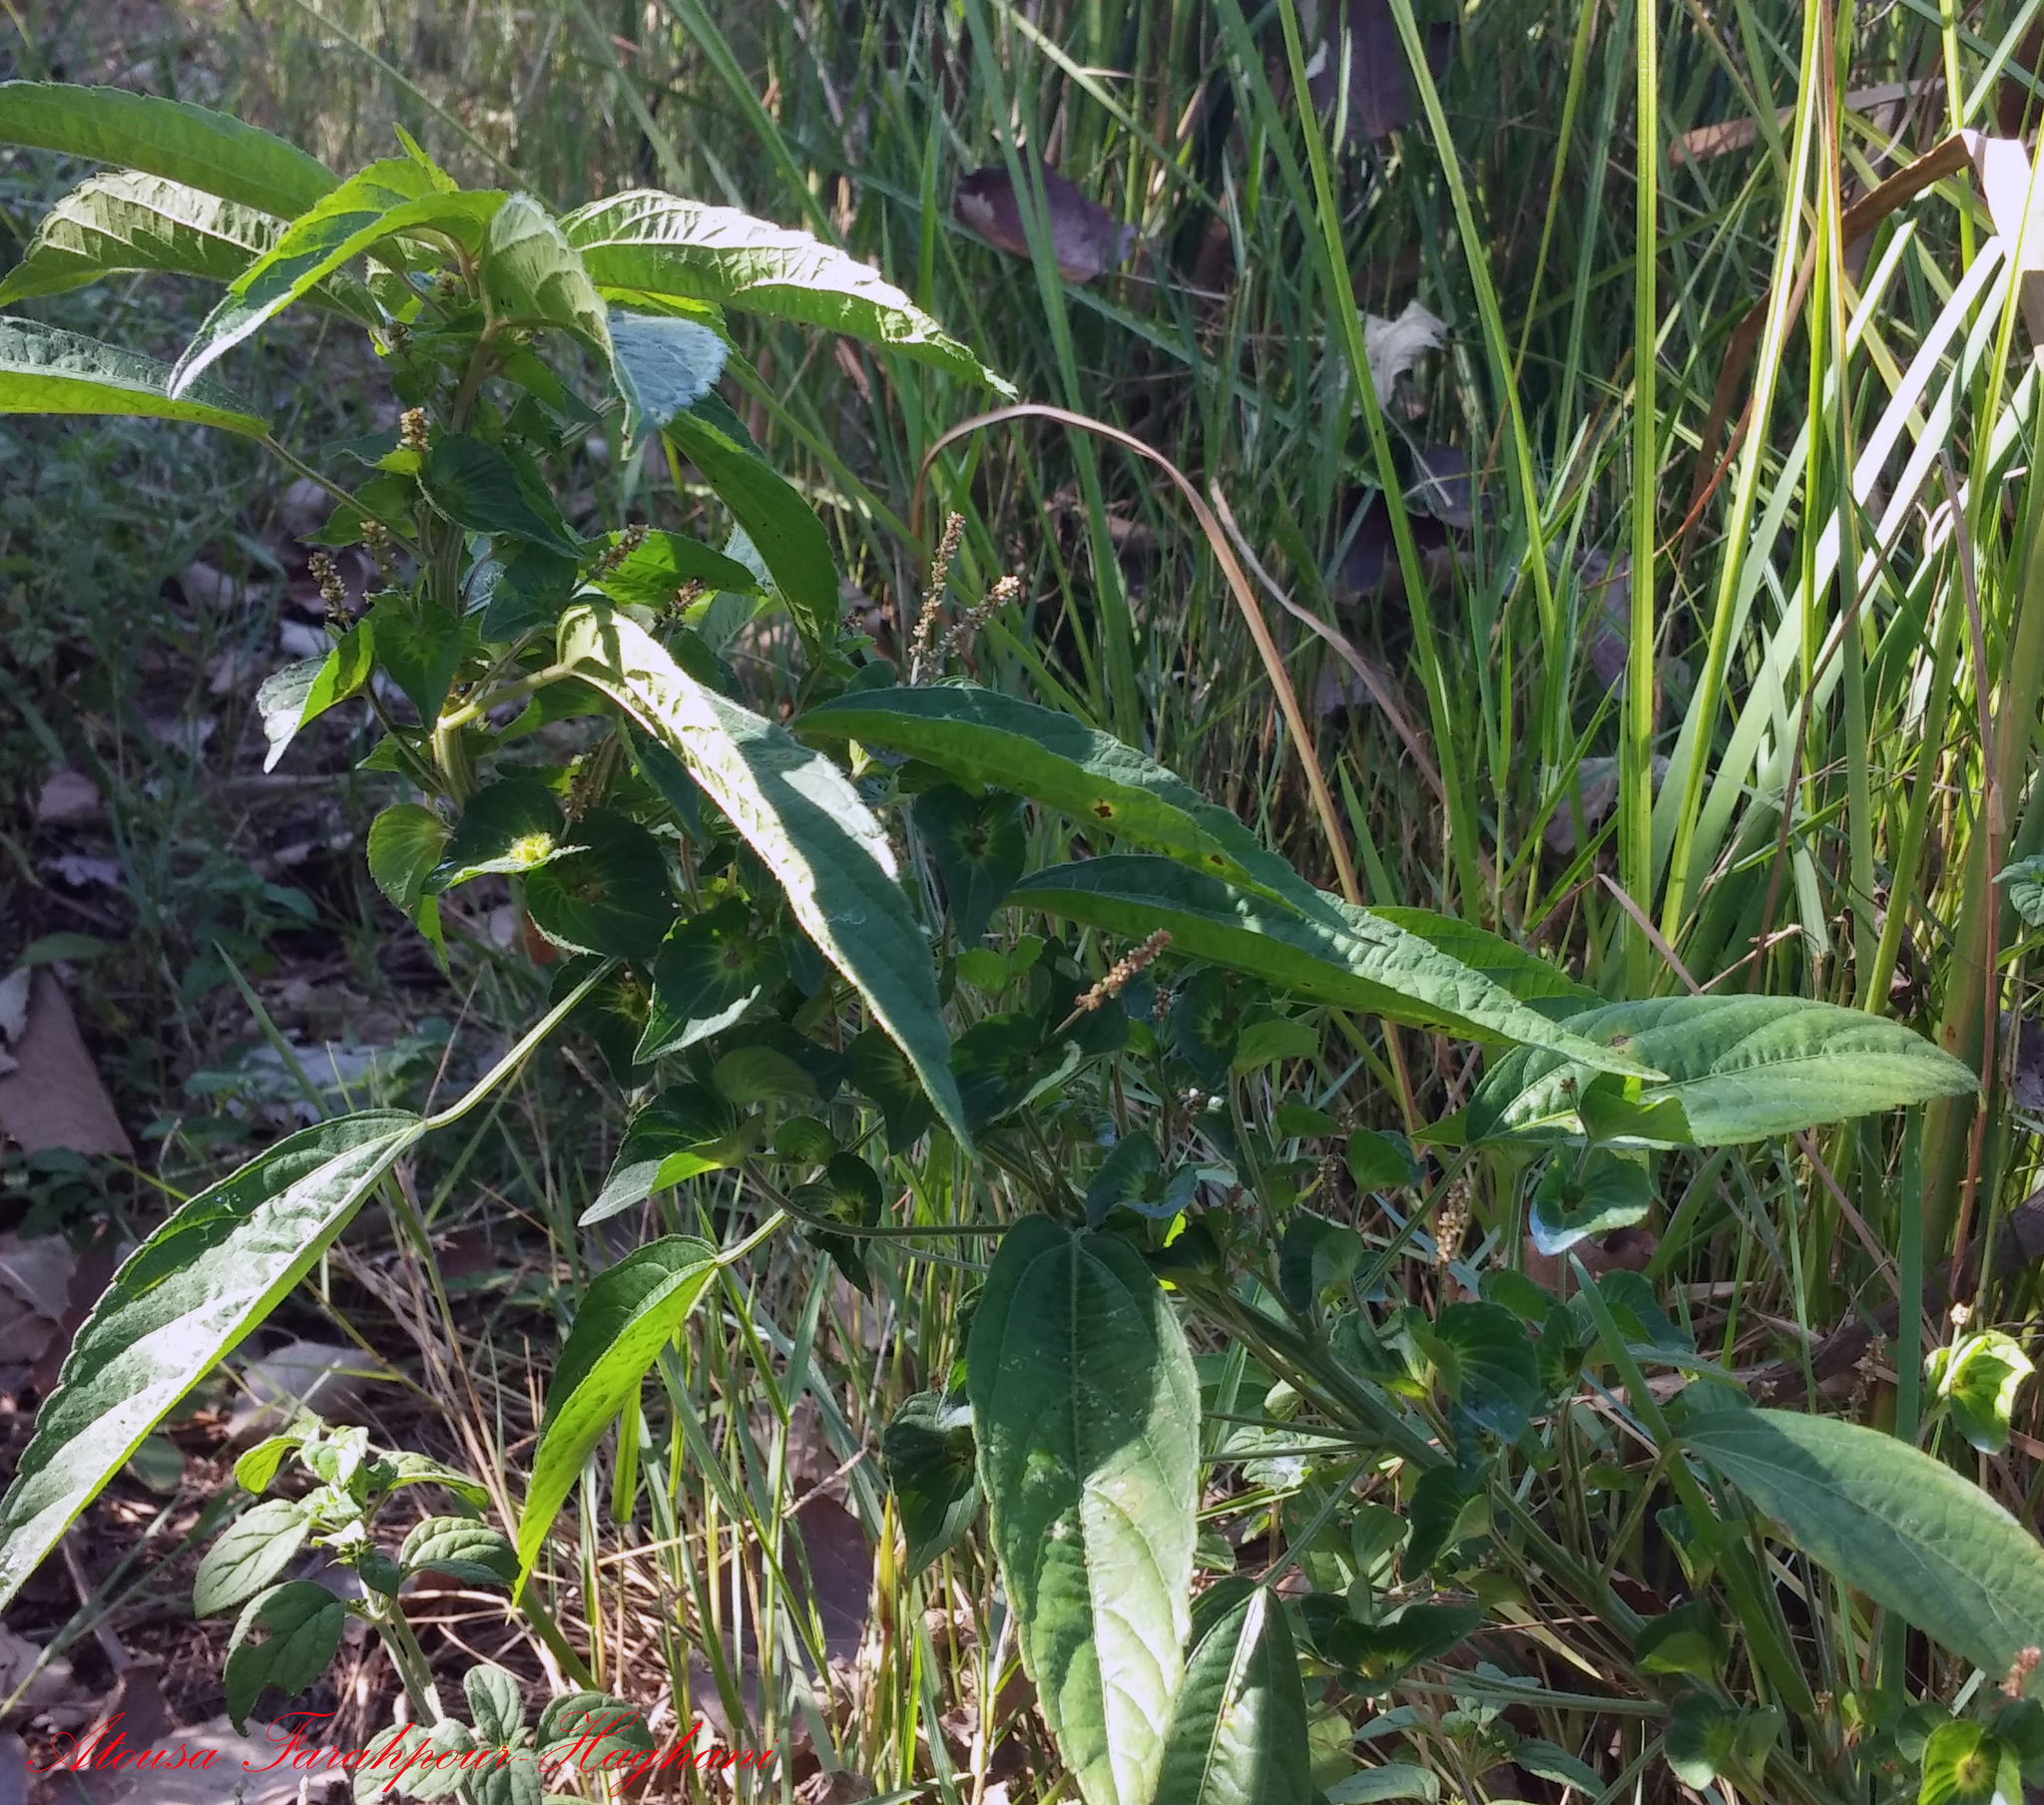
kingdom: Plantae
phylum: Tracheophyta
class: Magnoliopsida
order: Malpighiales
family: Euphorbiaceae
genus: Acalypha
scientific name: Acalypha australis
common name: Asian copperleaf
